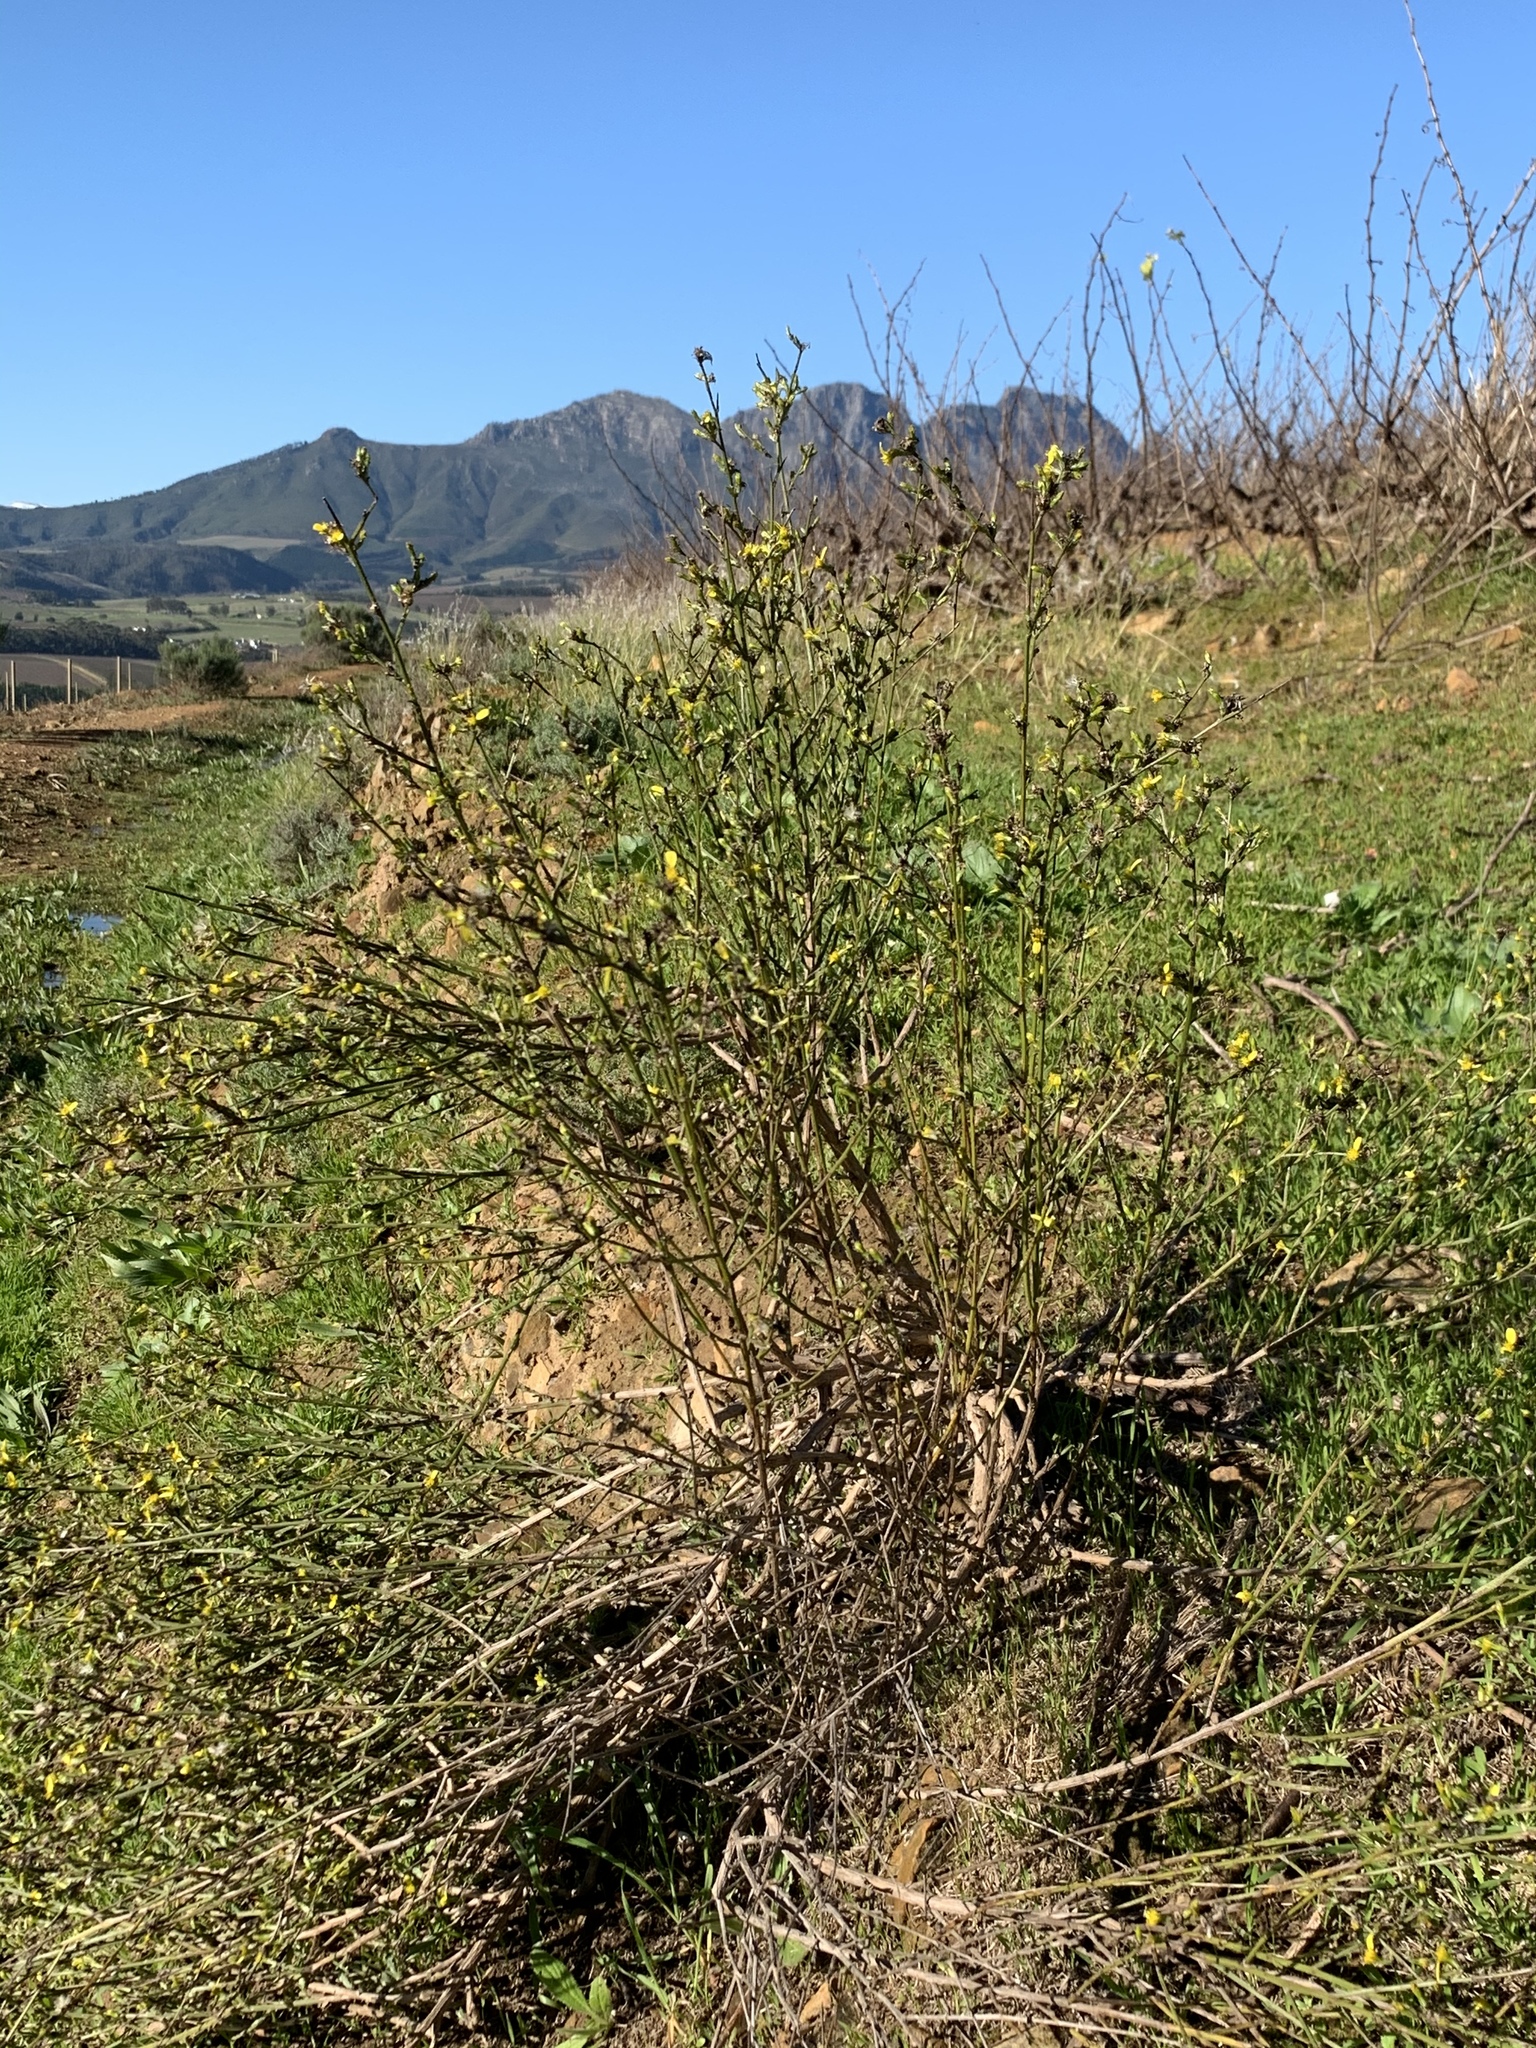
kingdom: Plantae
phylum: Tracheophyta
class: Magnoliopsida
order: Asterales
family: Asteraceae
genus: Senecio
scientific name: Senecio pubigerus
